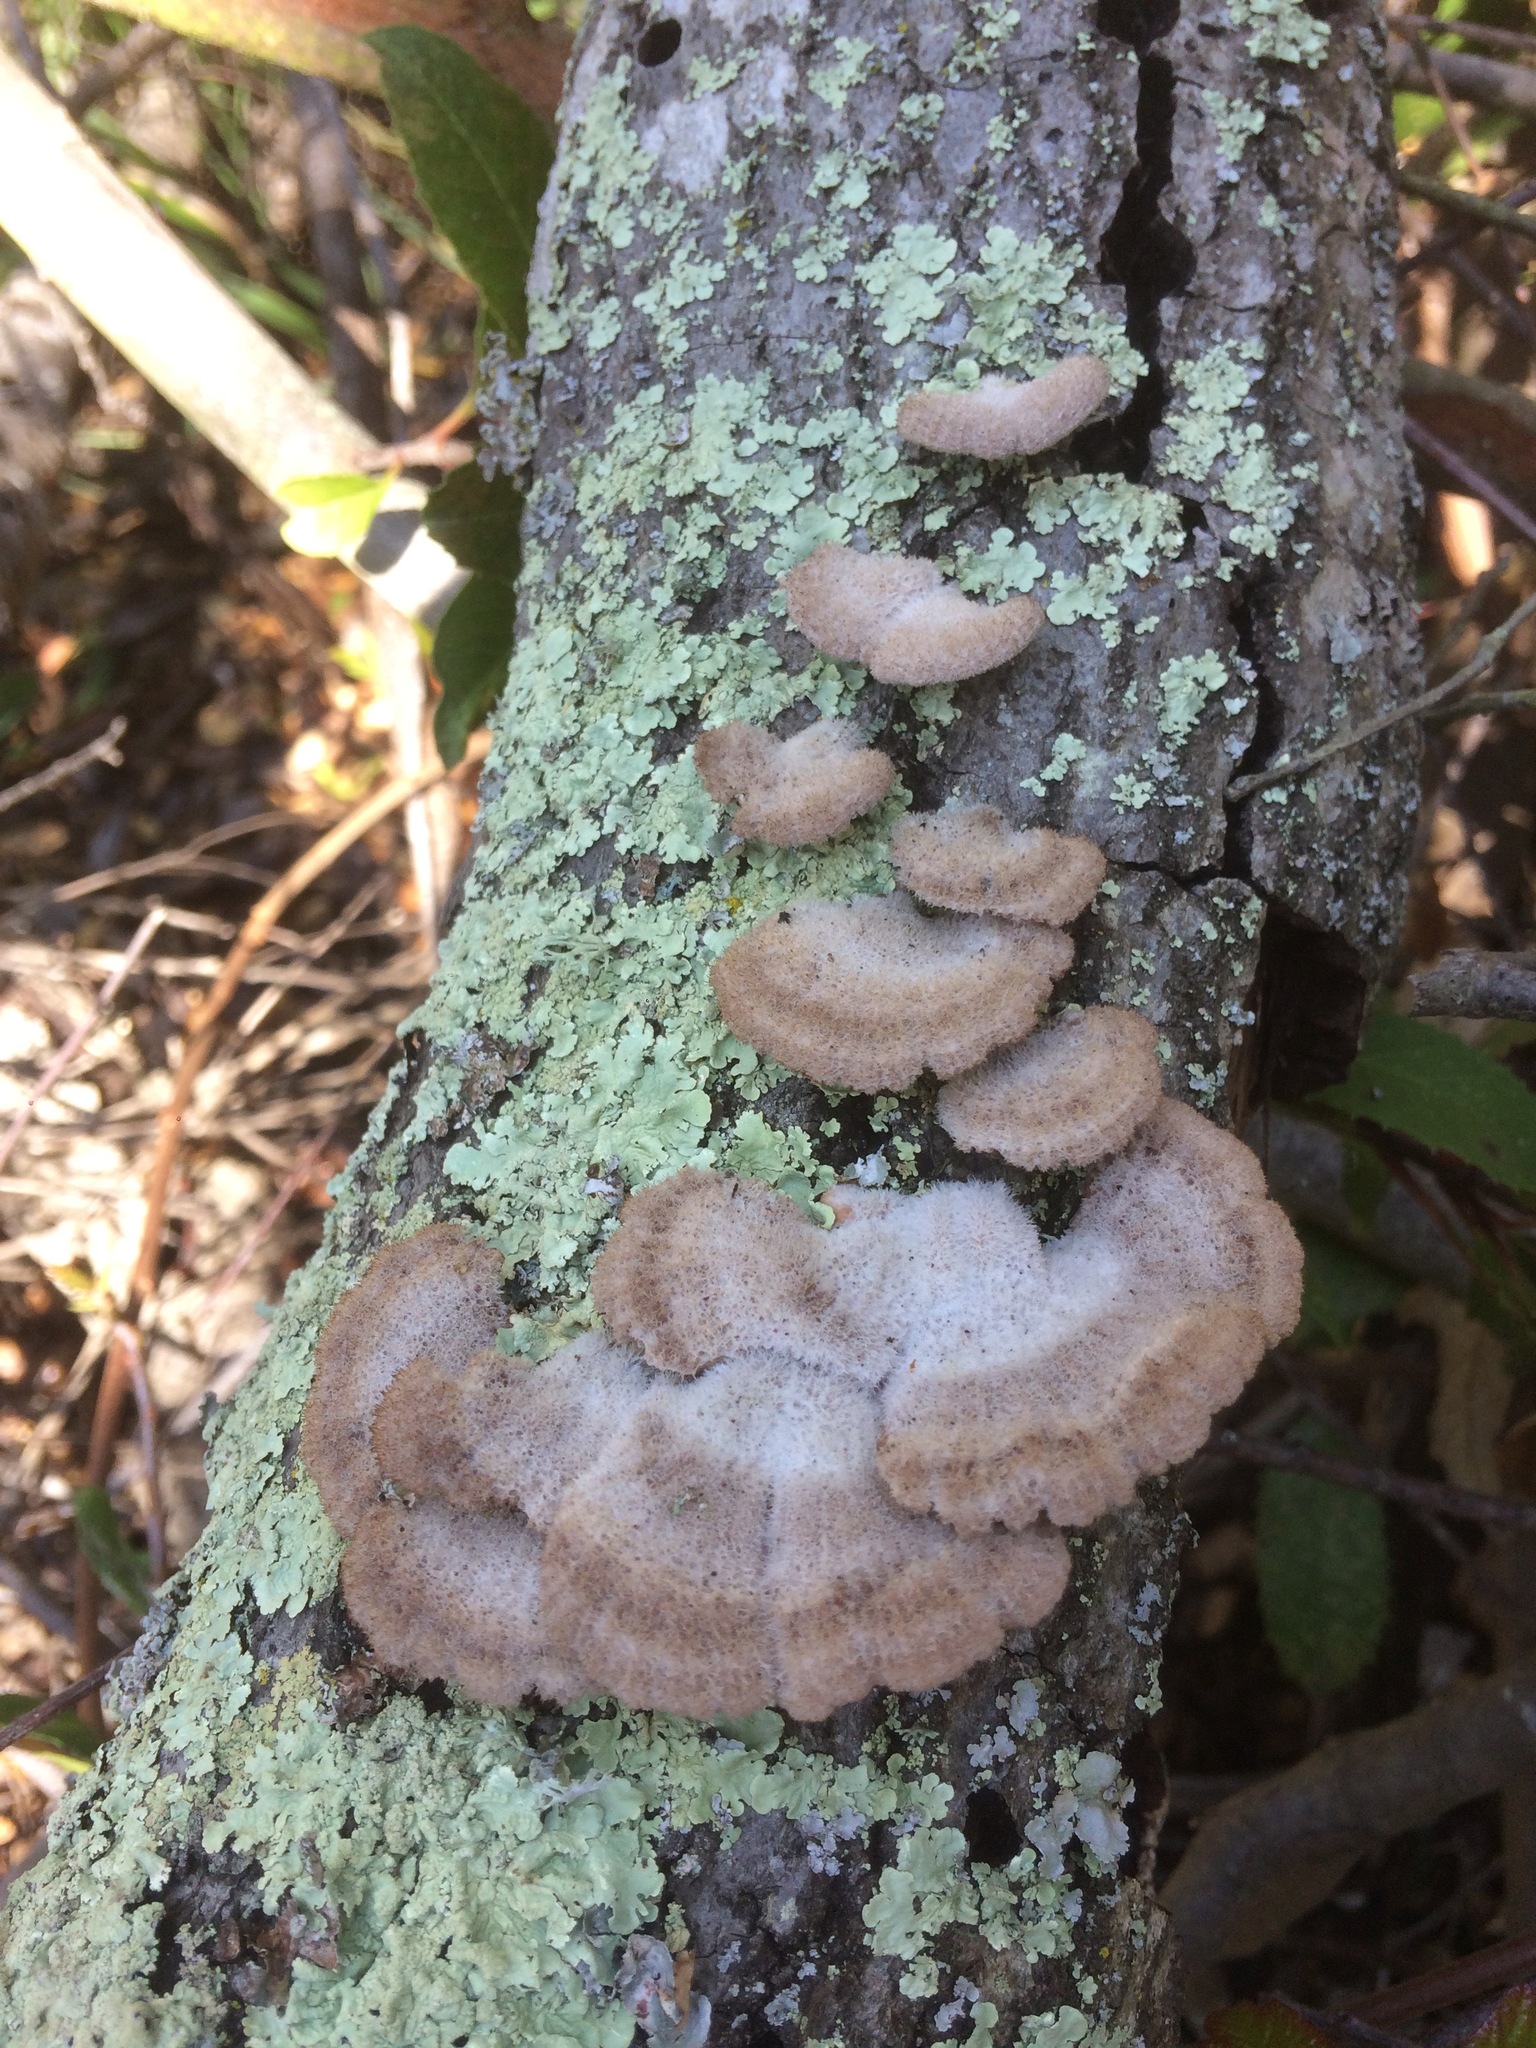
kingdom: Fungi
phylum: Basidiomycota
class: Agaricomycetes
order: Agaricales
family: Schizophyllaceae
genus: Schizophyllum
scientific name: Schizophyllum commune
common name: Common porecrust
